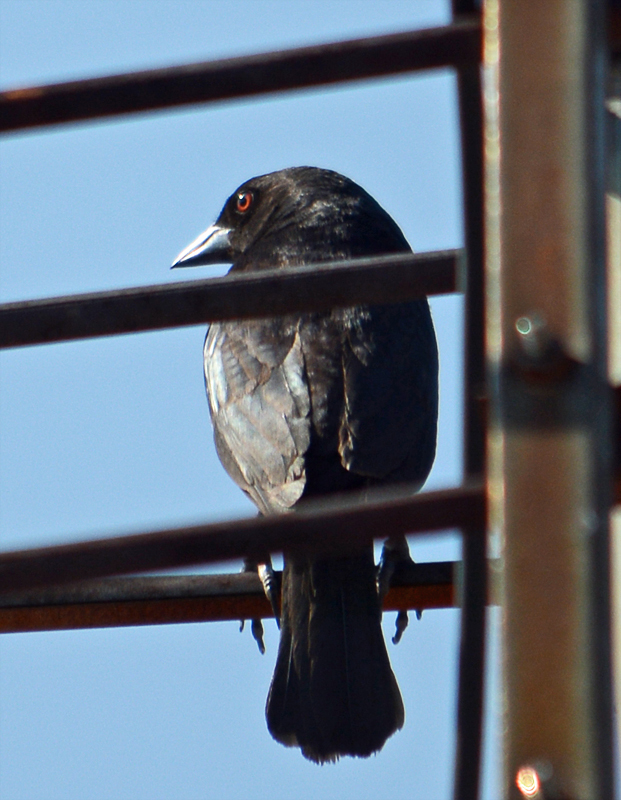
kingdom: Animalia
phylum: Chordata
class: Aves
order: Passeriformes
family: Icteridae
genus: Molothrus
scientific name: Molothrus aeneus
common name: Bronzed cowbird
